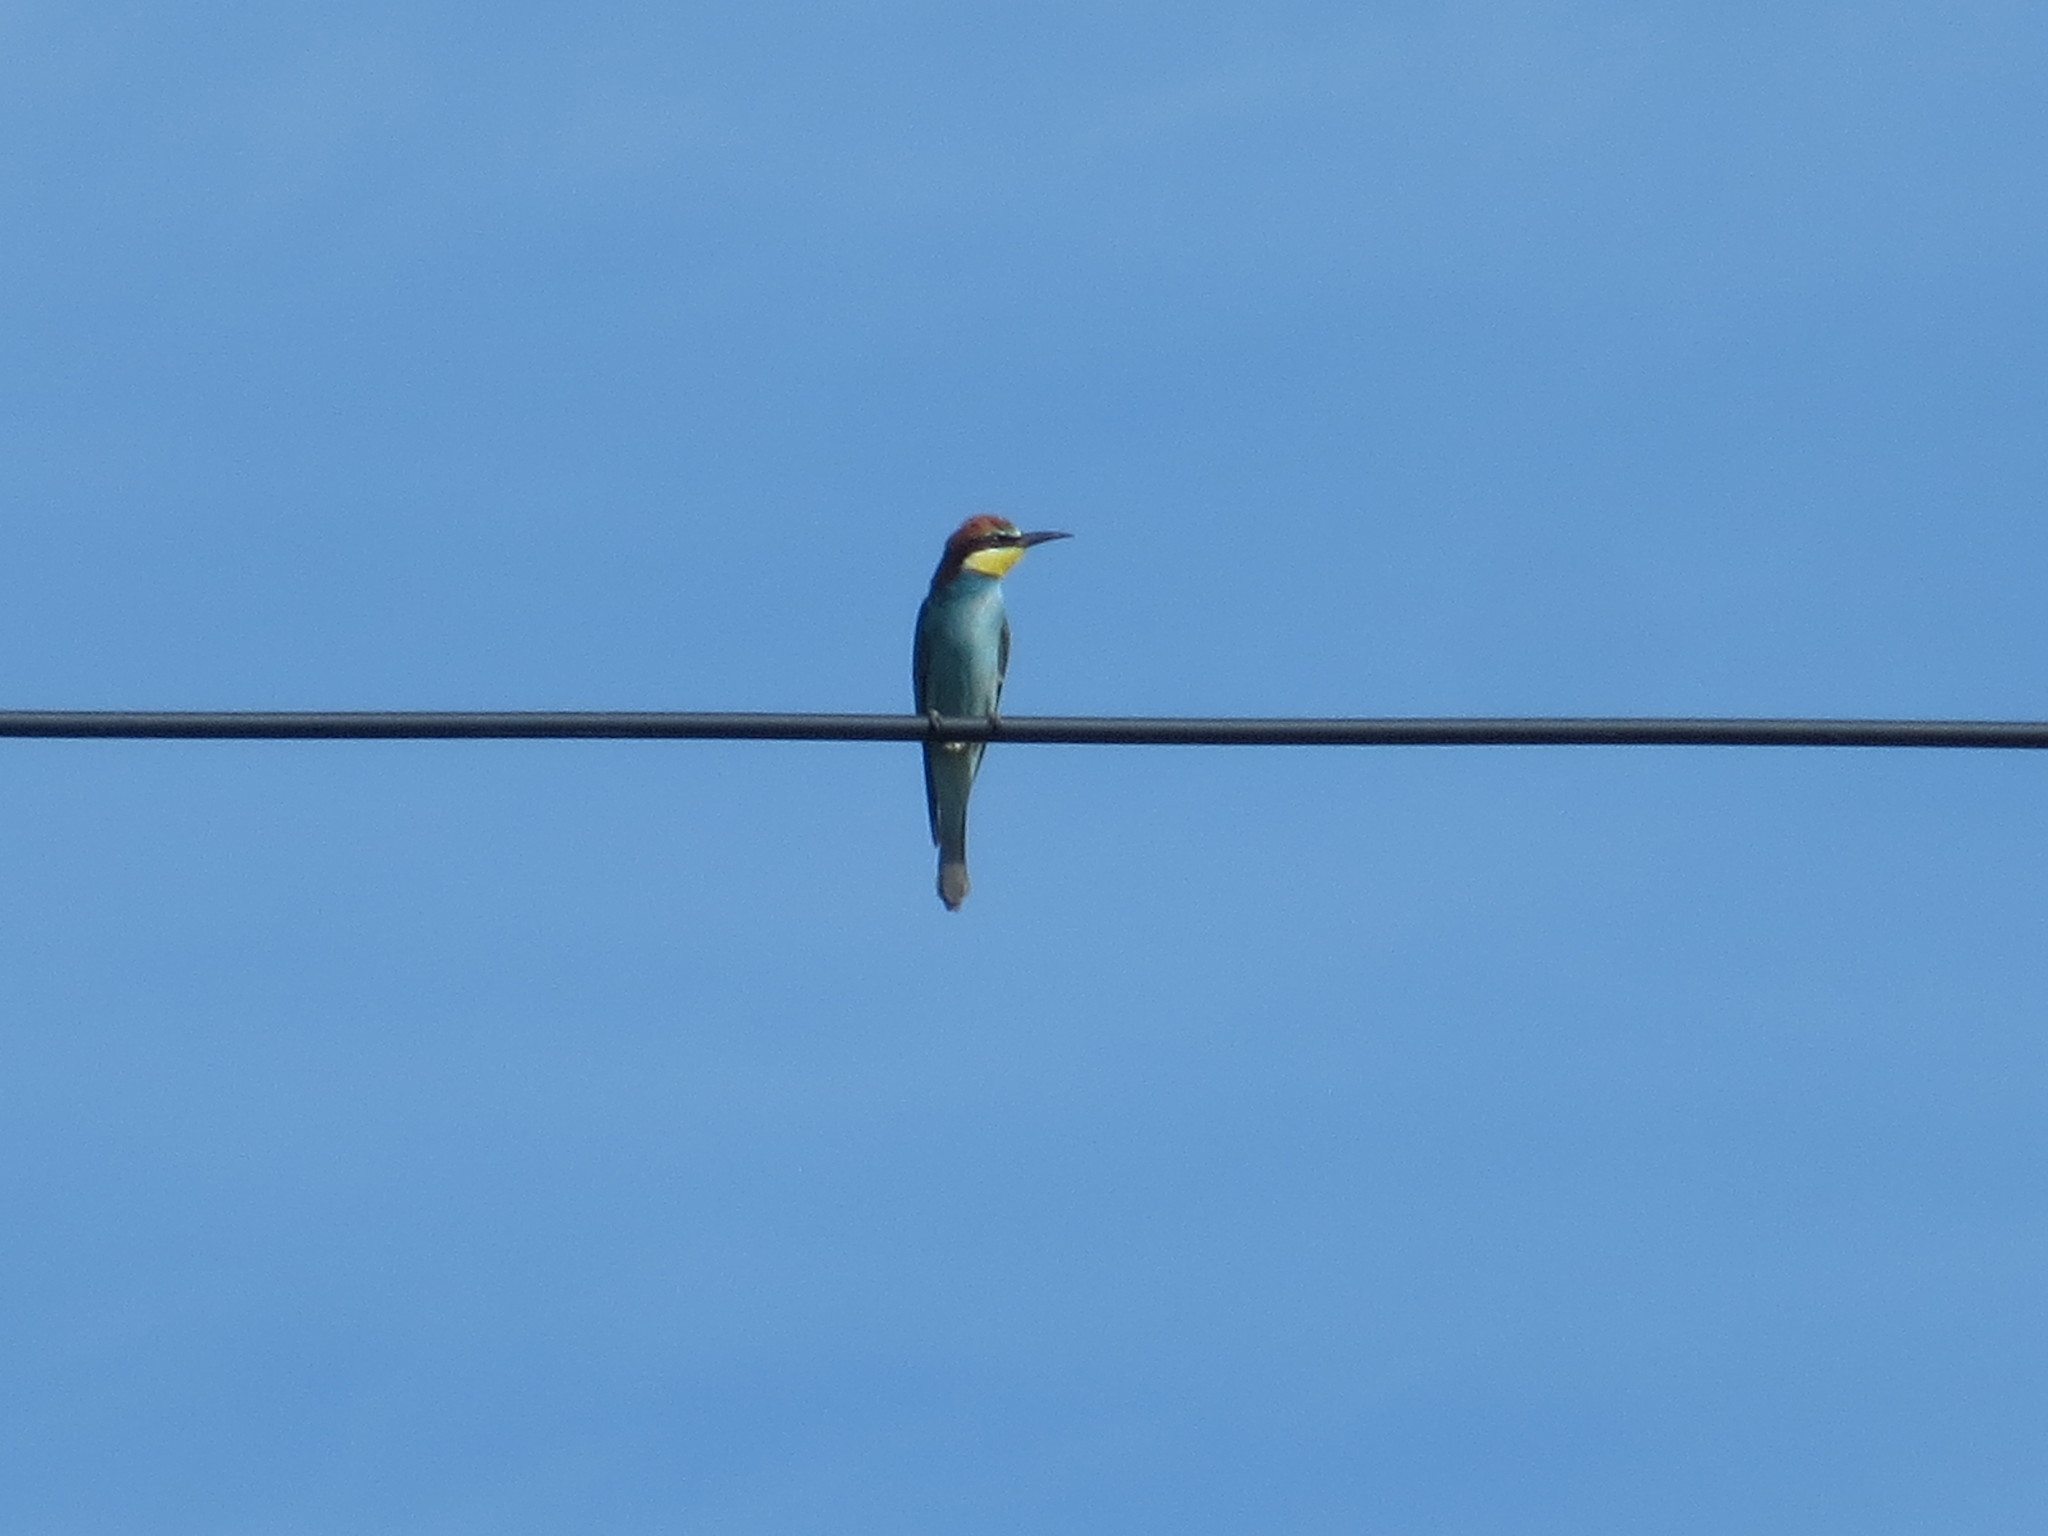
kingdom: Animalia
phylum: Chordata
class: Aves
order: Coraciiformes
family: Meropidae
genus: Merops
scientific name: Merops apiaster
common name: European bee-eater
